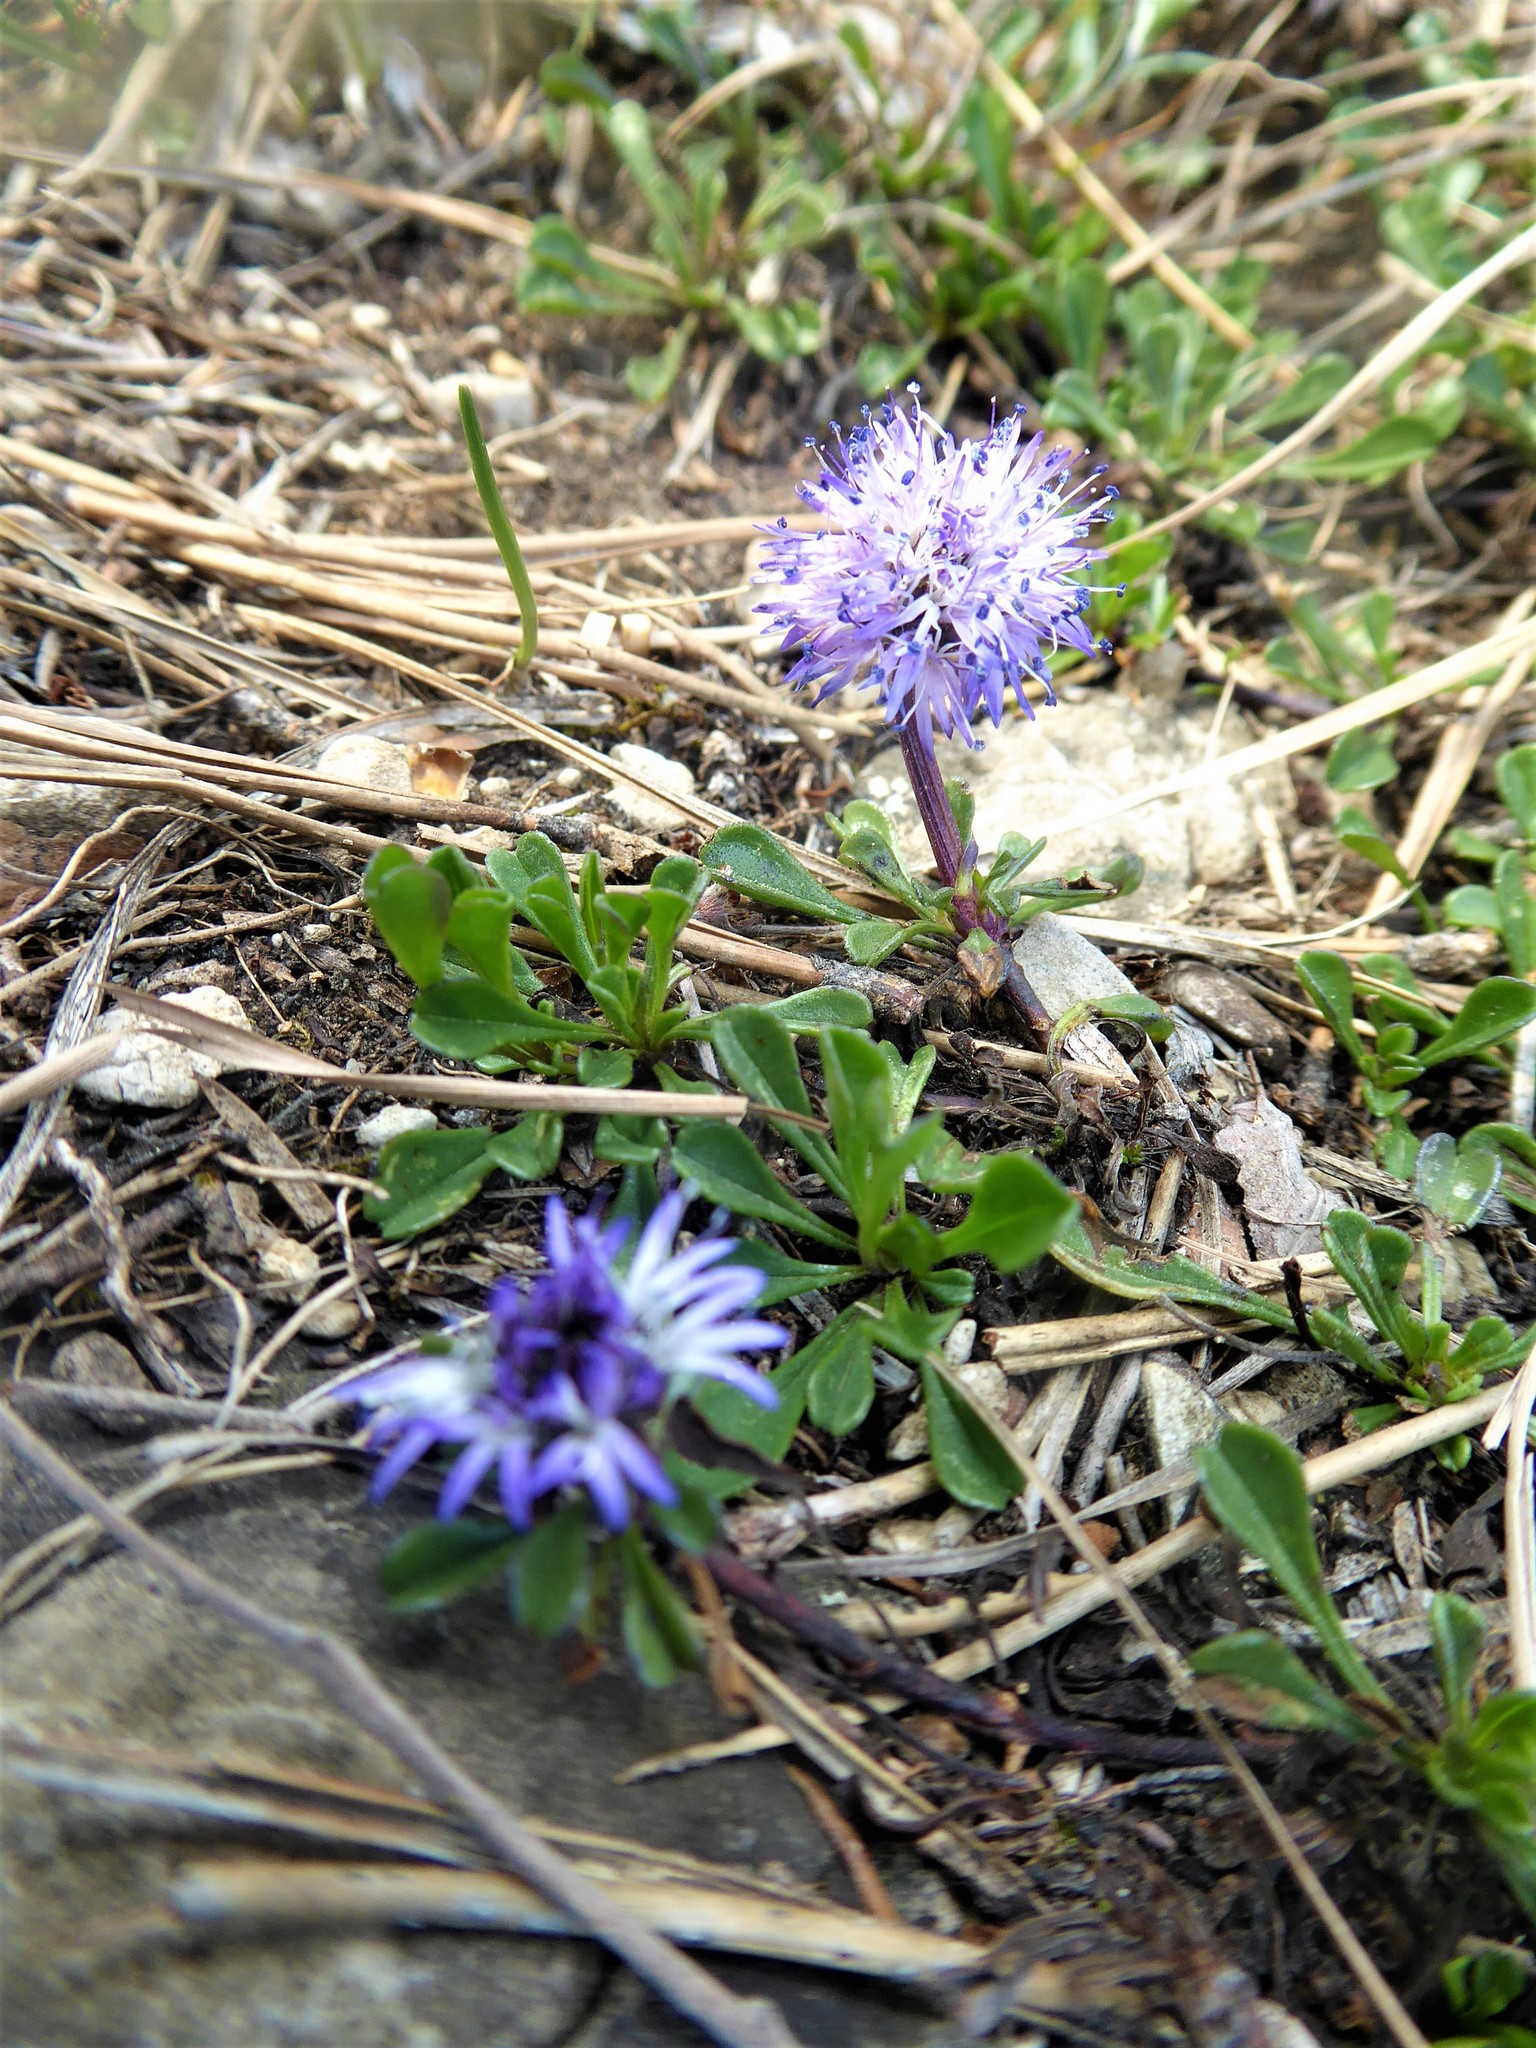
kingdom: Plantae
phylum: Tracheophyta
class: Magnoliopsida
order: Lamiales
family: Plantaginaceae
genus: Globularia
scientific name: Globularia cordifolia
